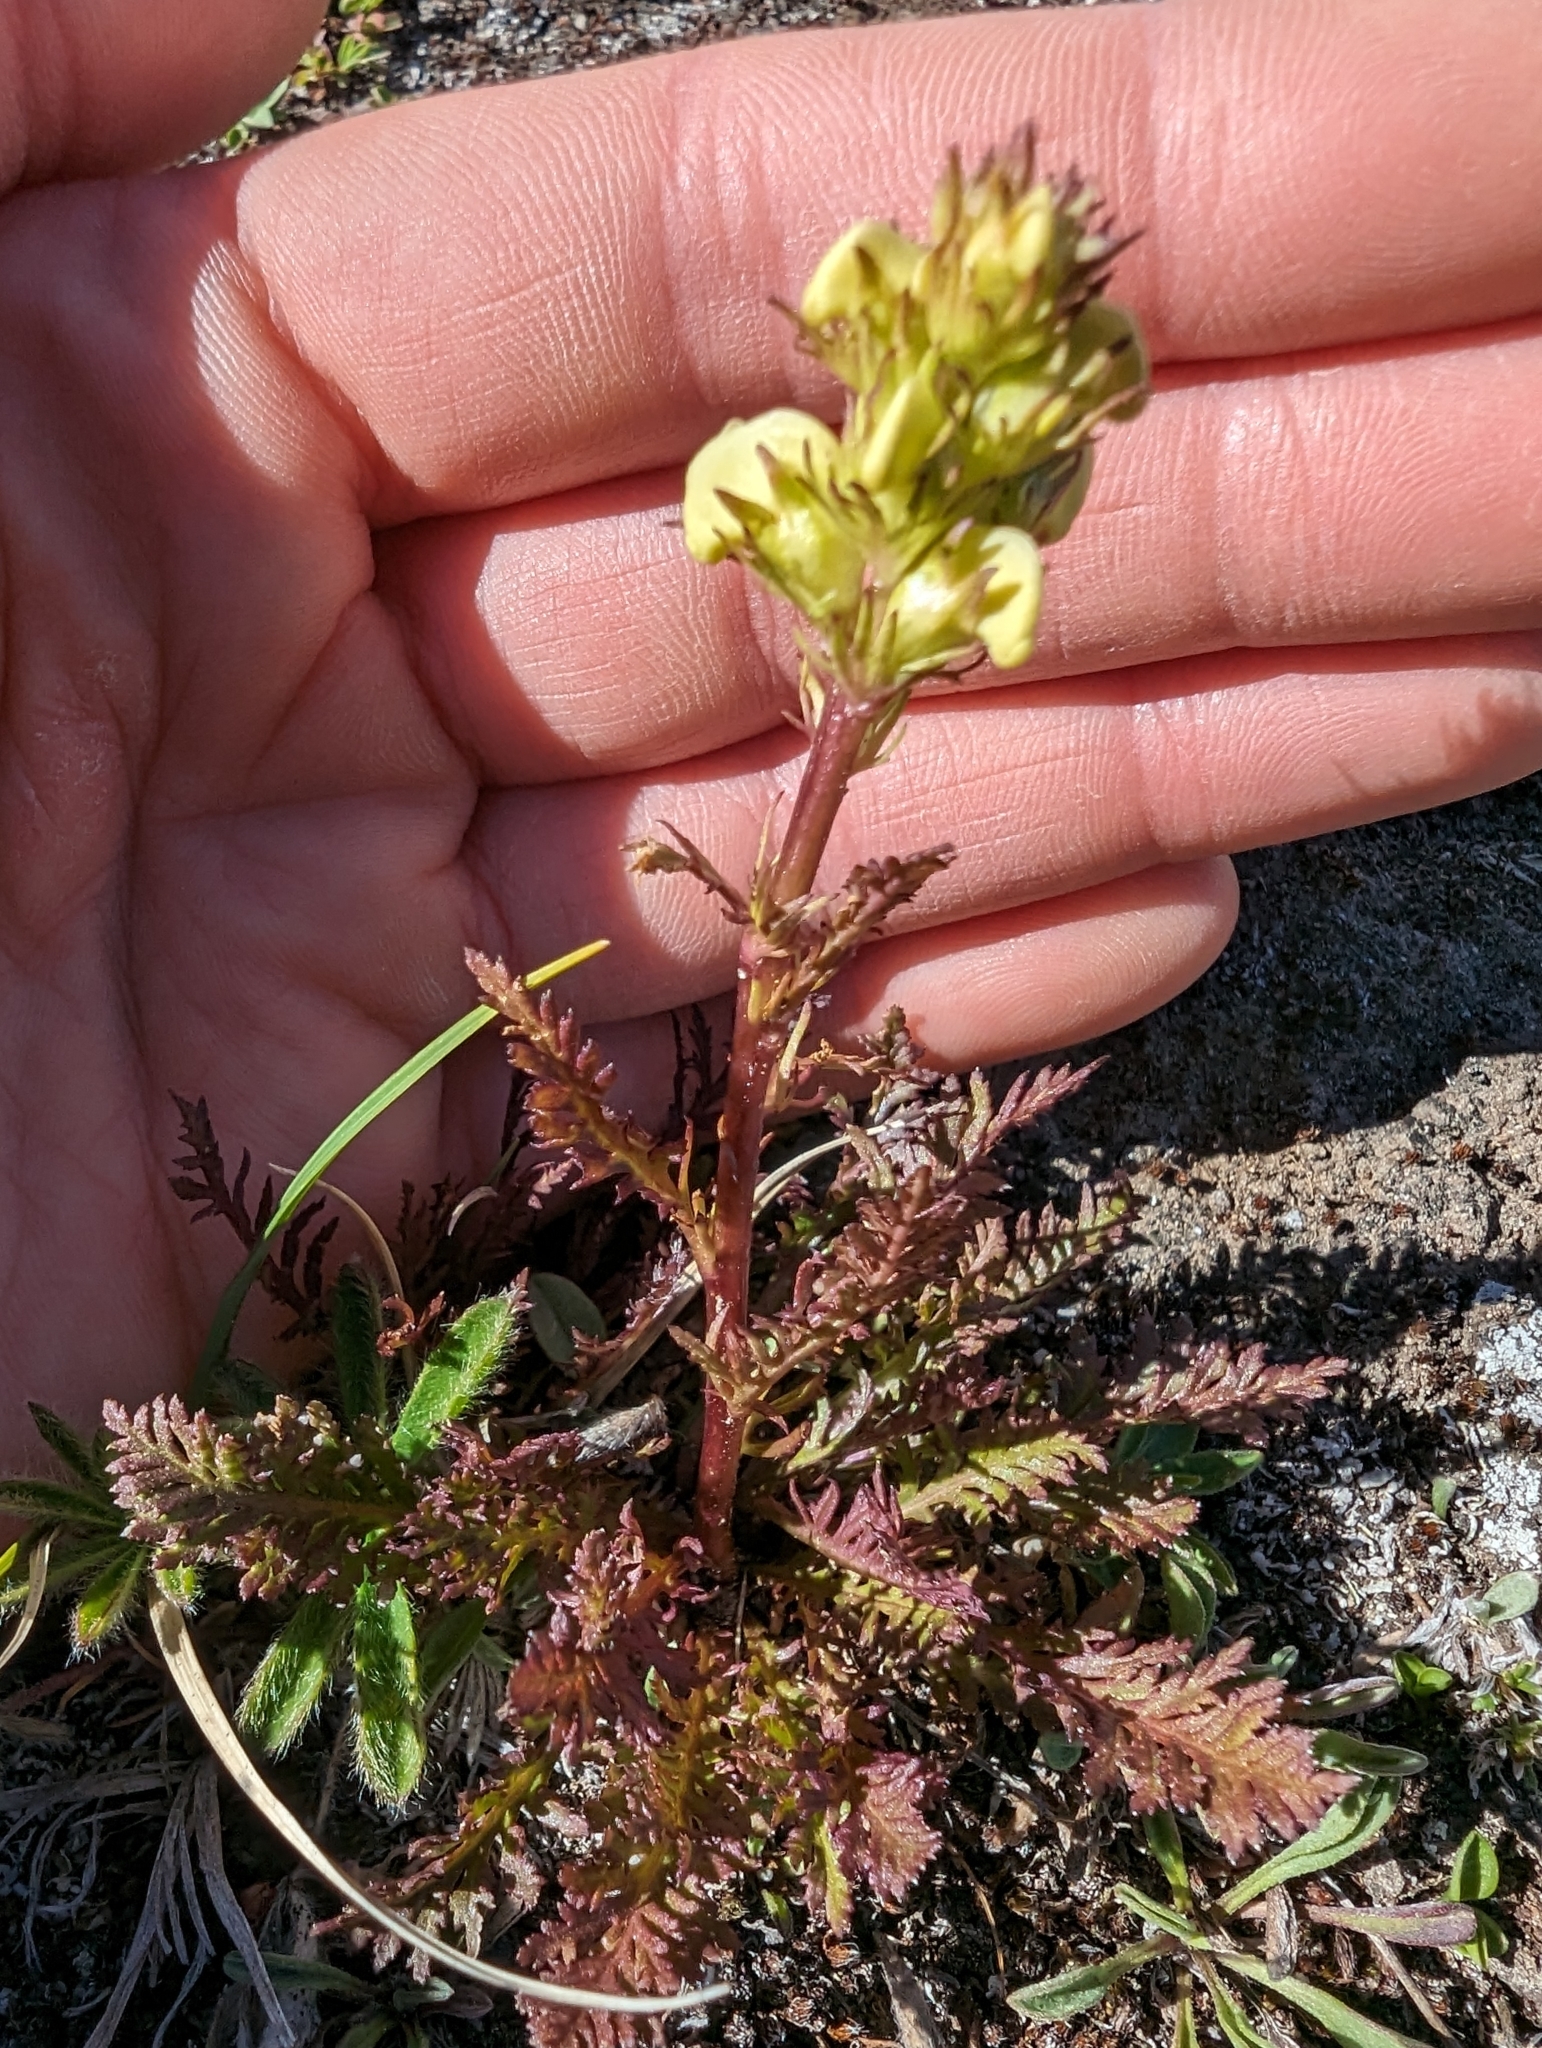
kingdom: Plantae
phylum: Tracheophyta
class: Magnoliopsida
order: Lamiales
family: Orobanchaceae
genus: Pedicularis
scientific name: Pedicularis contorta
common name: Coiled lousewort
